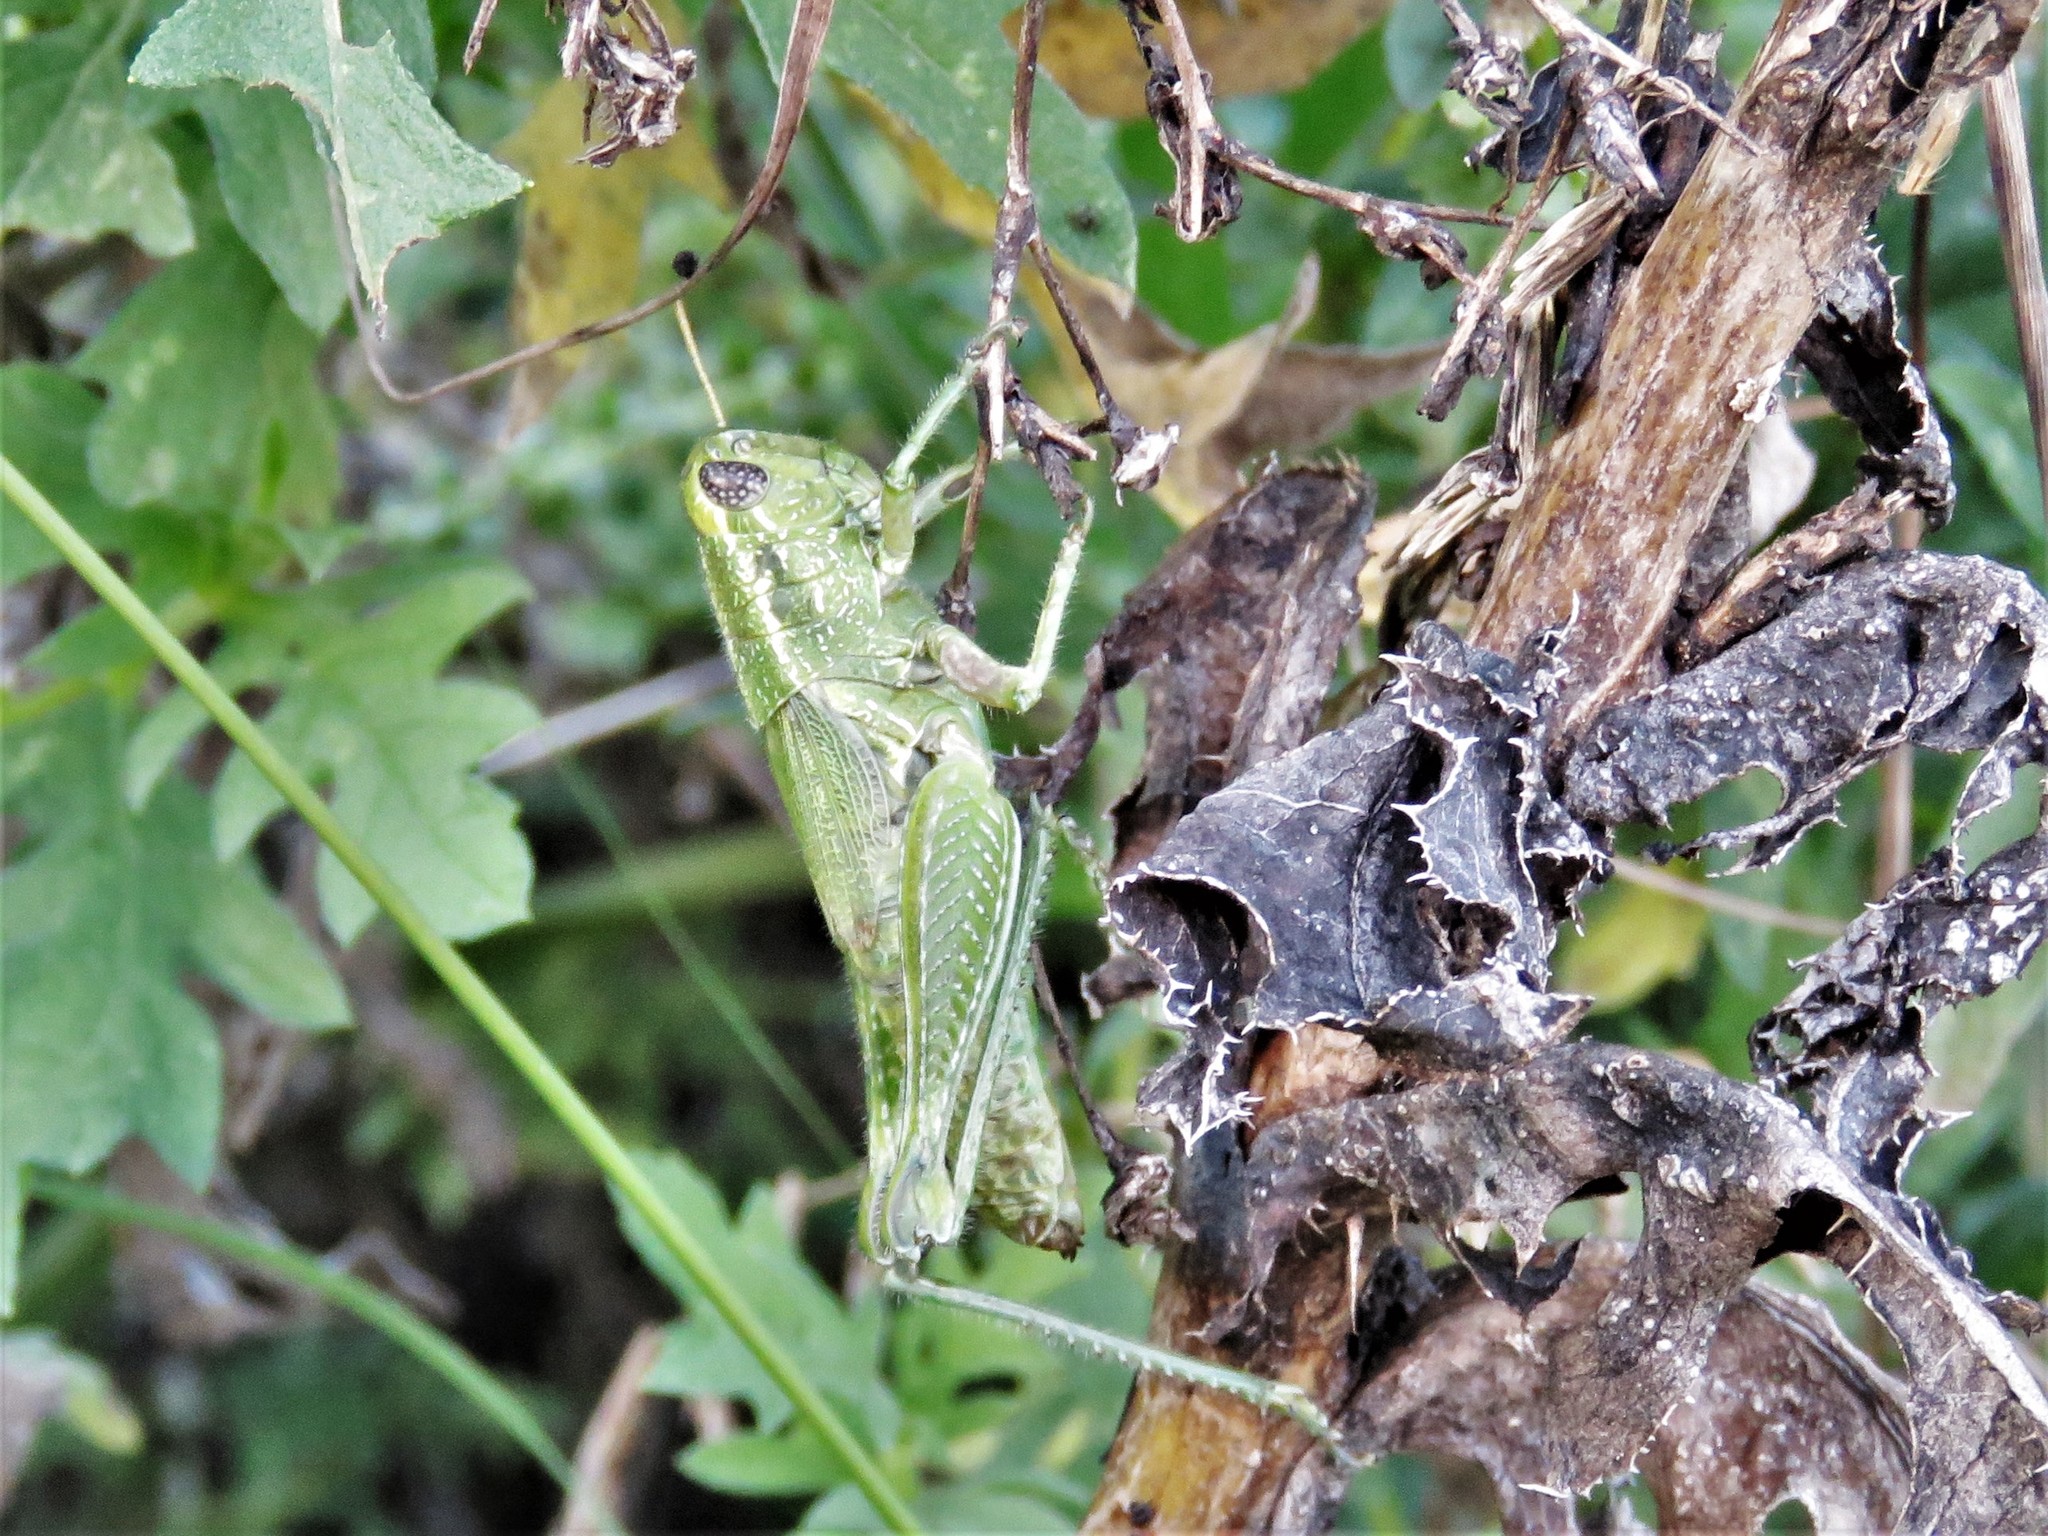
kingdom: Animalia
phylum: Arthropoda
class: Insecta
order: Orthoptera
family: Acrididae
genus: Campylacantha
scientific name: Campylacantha olivacea
